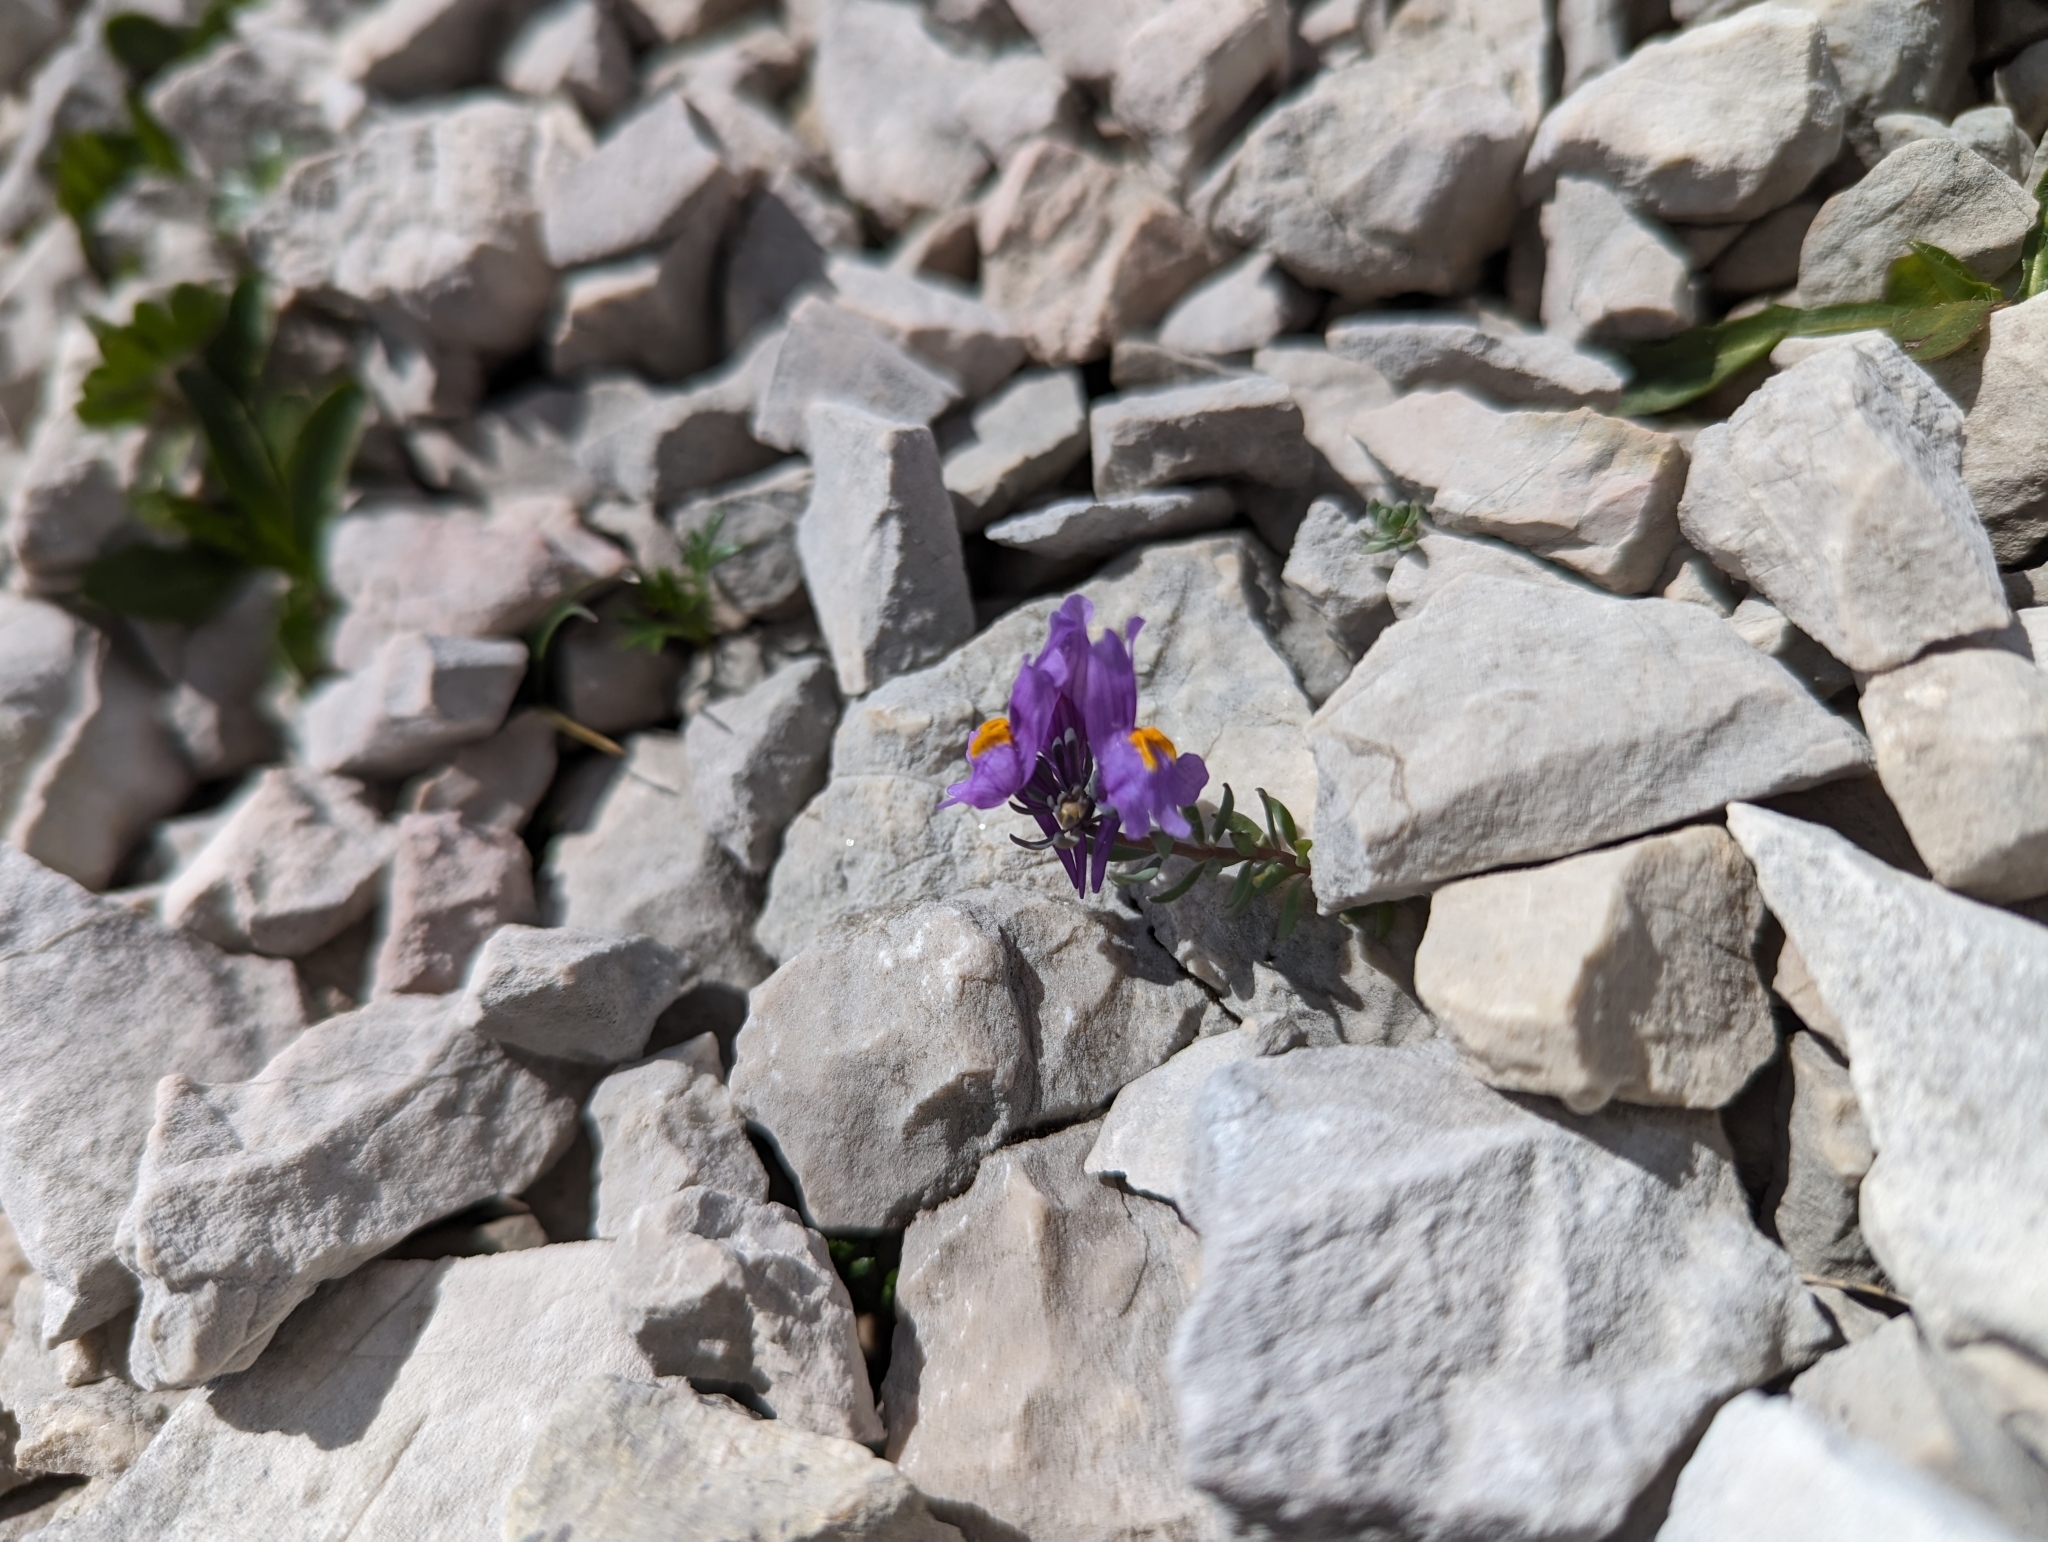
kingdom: Plantae
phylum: Tracheophyta
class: Magnoliopsida
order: Lamiales
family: Plantaginaceae
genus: Linaria
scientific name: Linaria alpina
